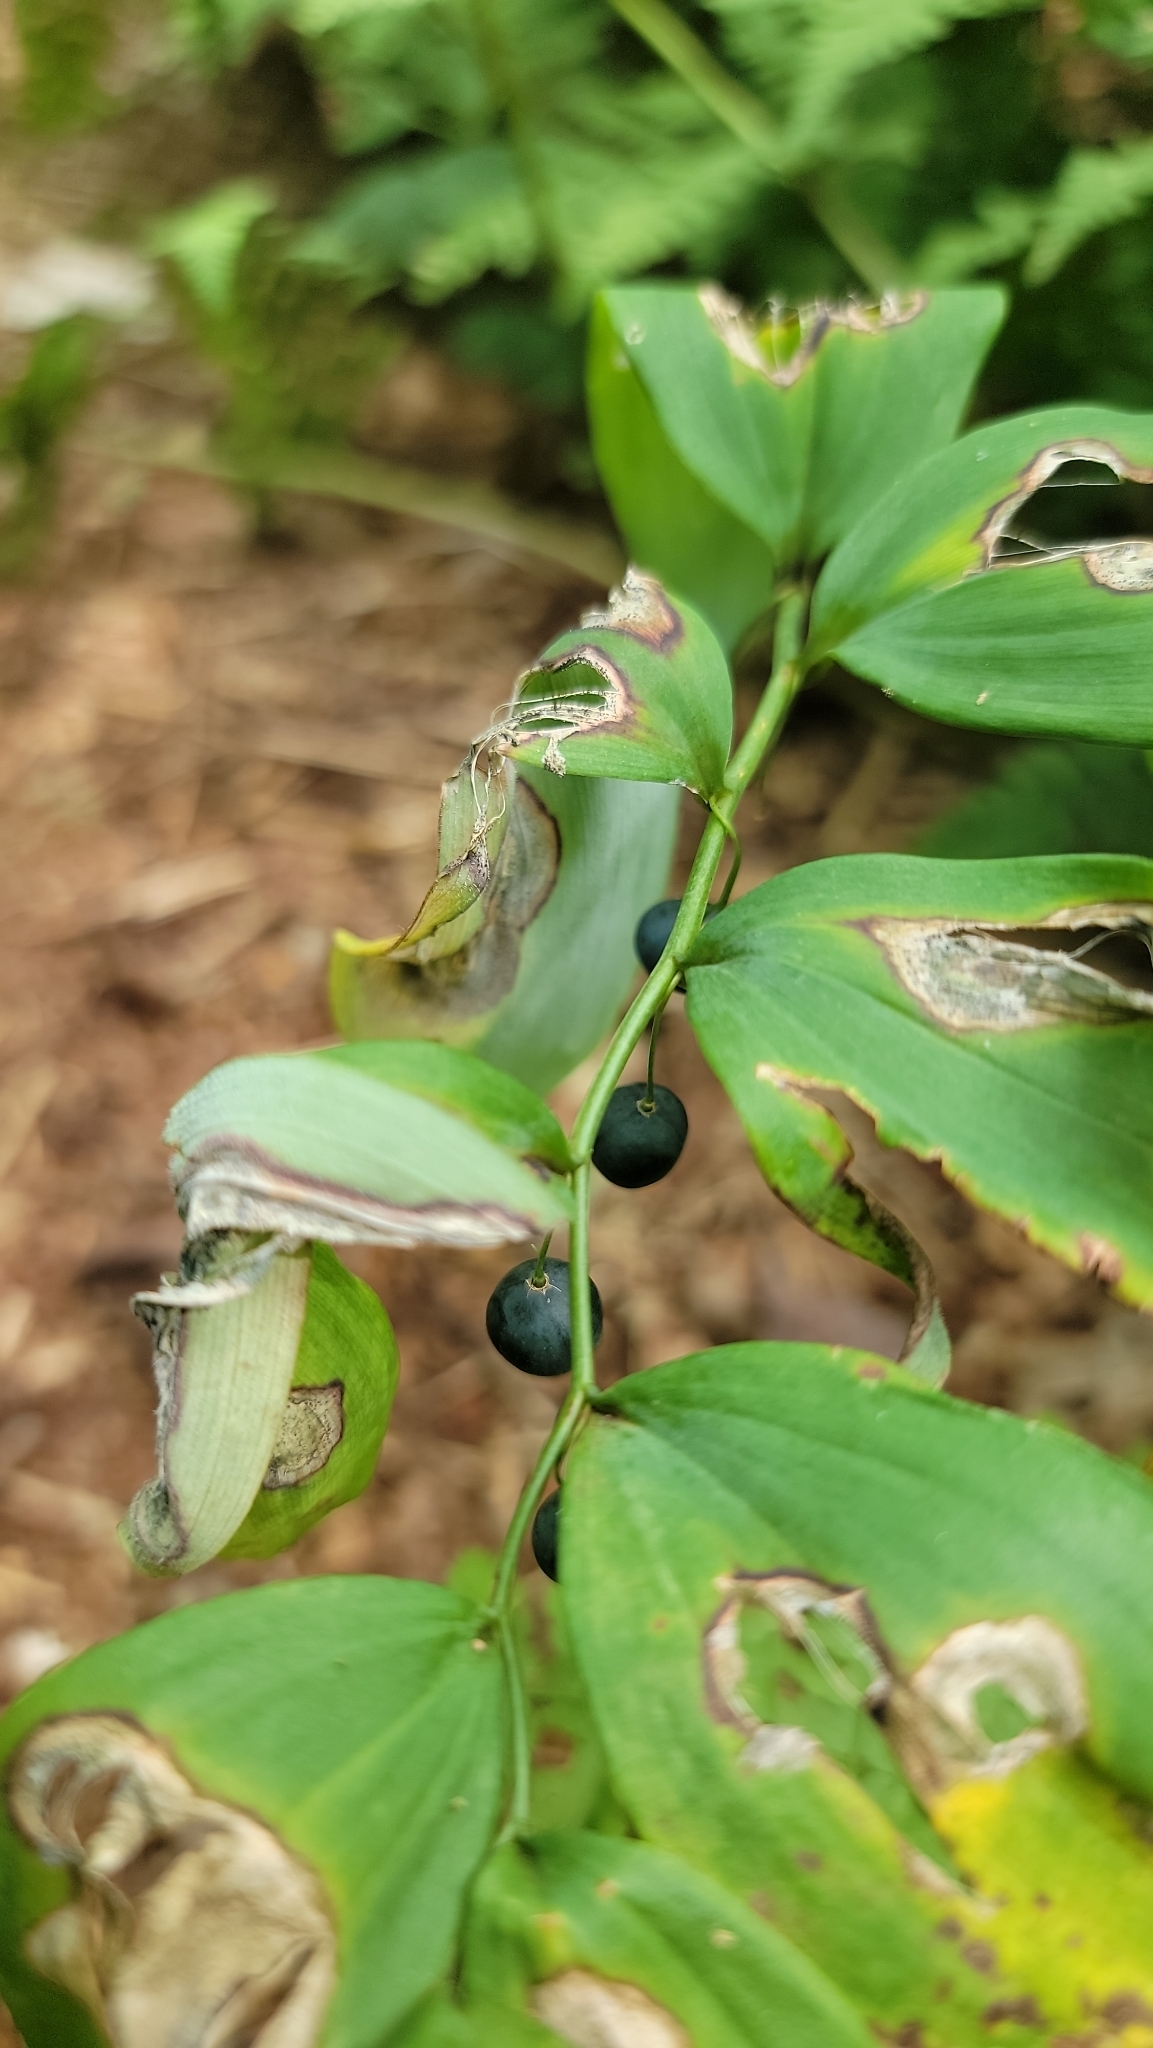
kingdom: Plantae
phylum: Tracheophyta
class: Liliopsida
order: Asparagales
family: Asparagaceae
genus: Polygonatum
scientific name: Polygonatum pubescens
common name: Downy solomon's seal
